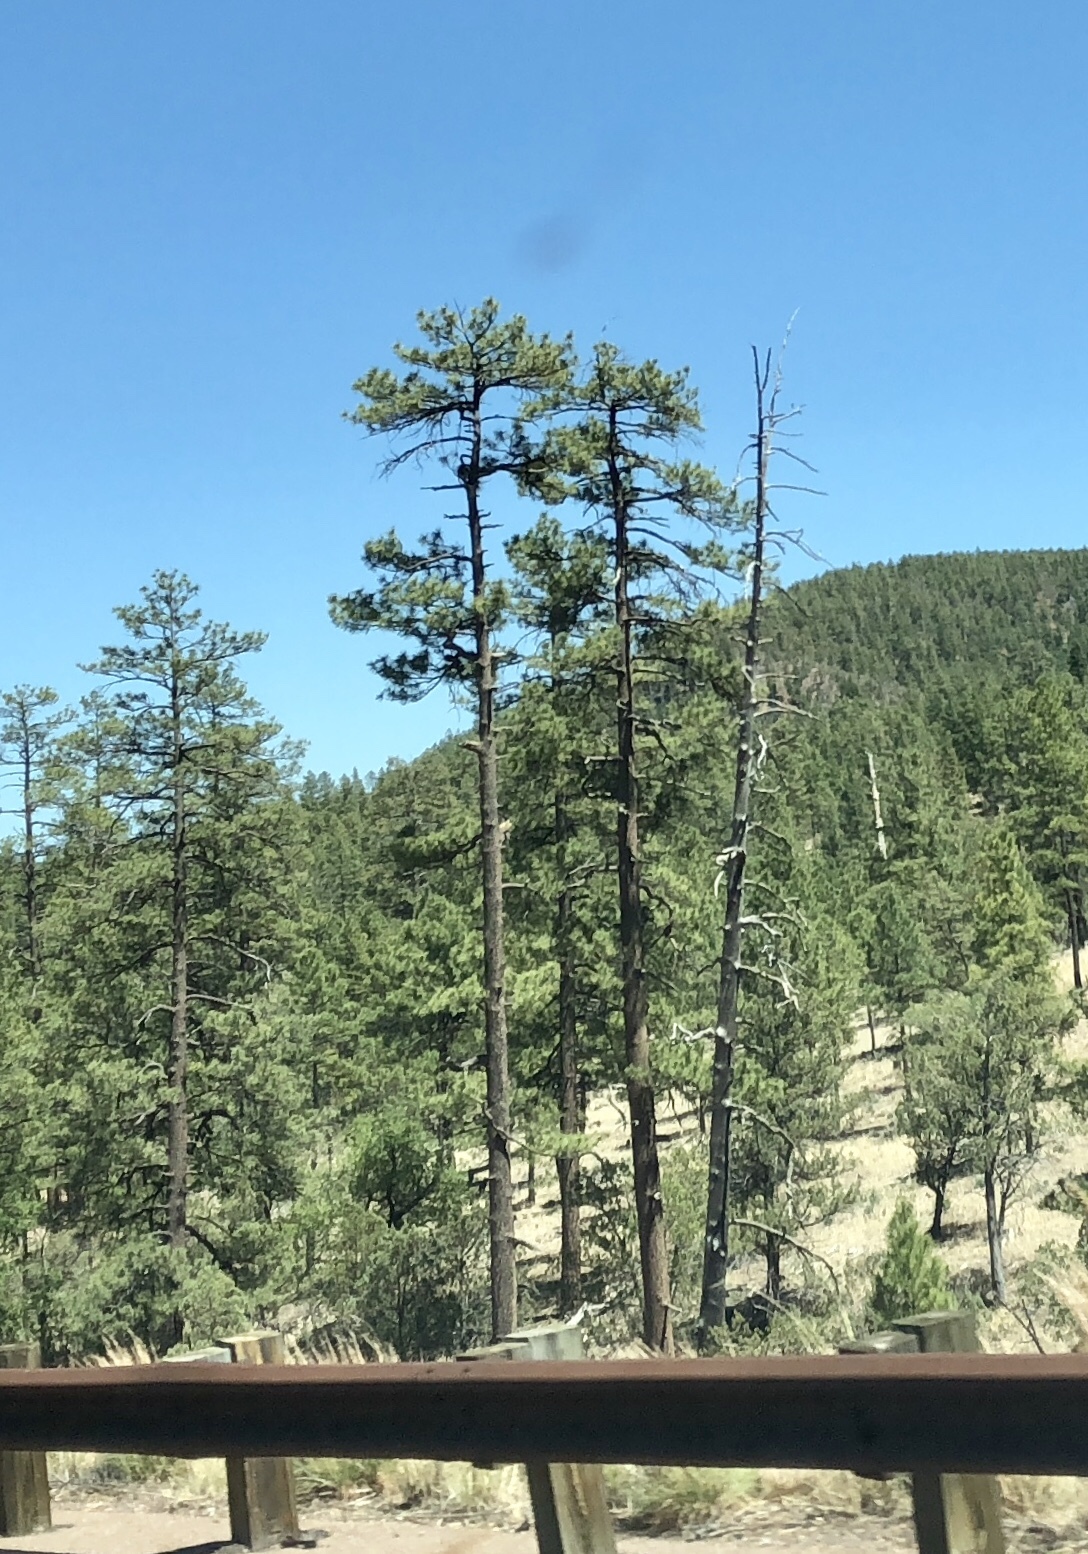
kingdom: Plantae
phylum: Tracheophyta
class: Pinopsida
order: Pinales
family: Pinaceae
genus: Pinus
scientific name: Pinus ponderosa
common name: Western yellow-pine
